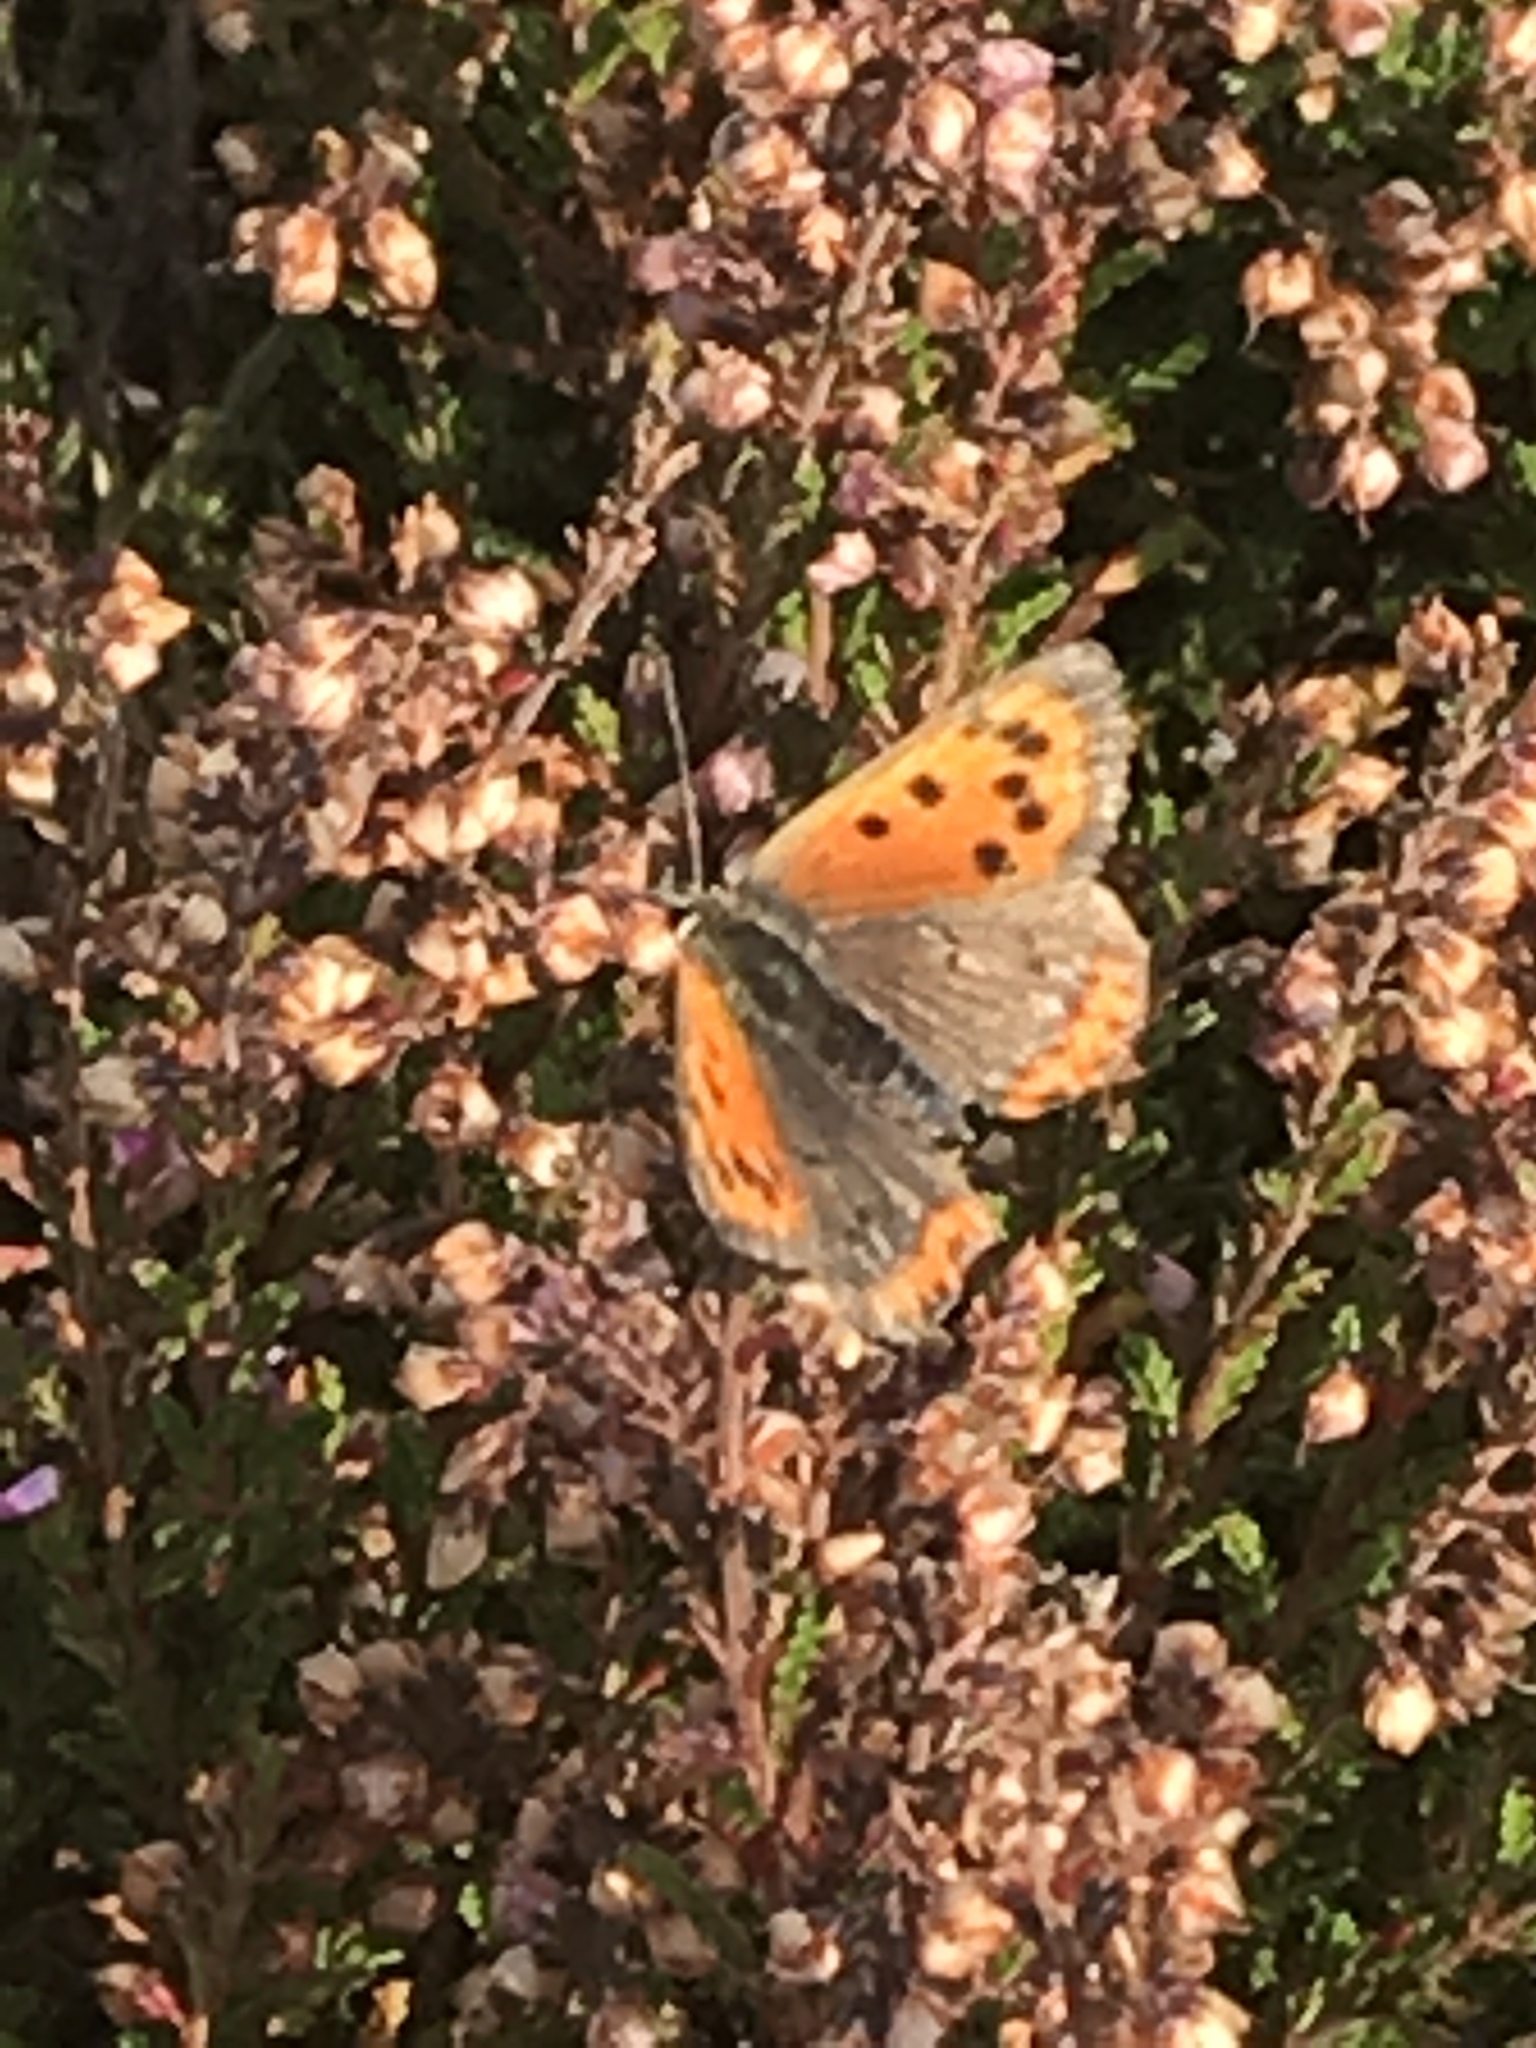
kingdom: Animalia
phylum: Arthropoda
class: Insecta
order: Lepidoptera
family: Lycaenidae
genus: Lycaena
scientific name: Lycaena phlaeas
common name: Small copper
